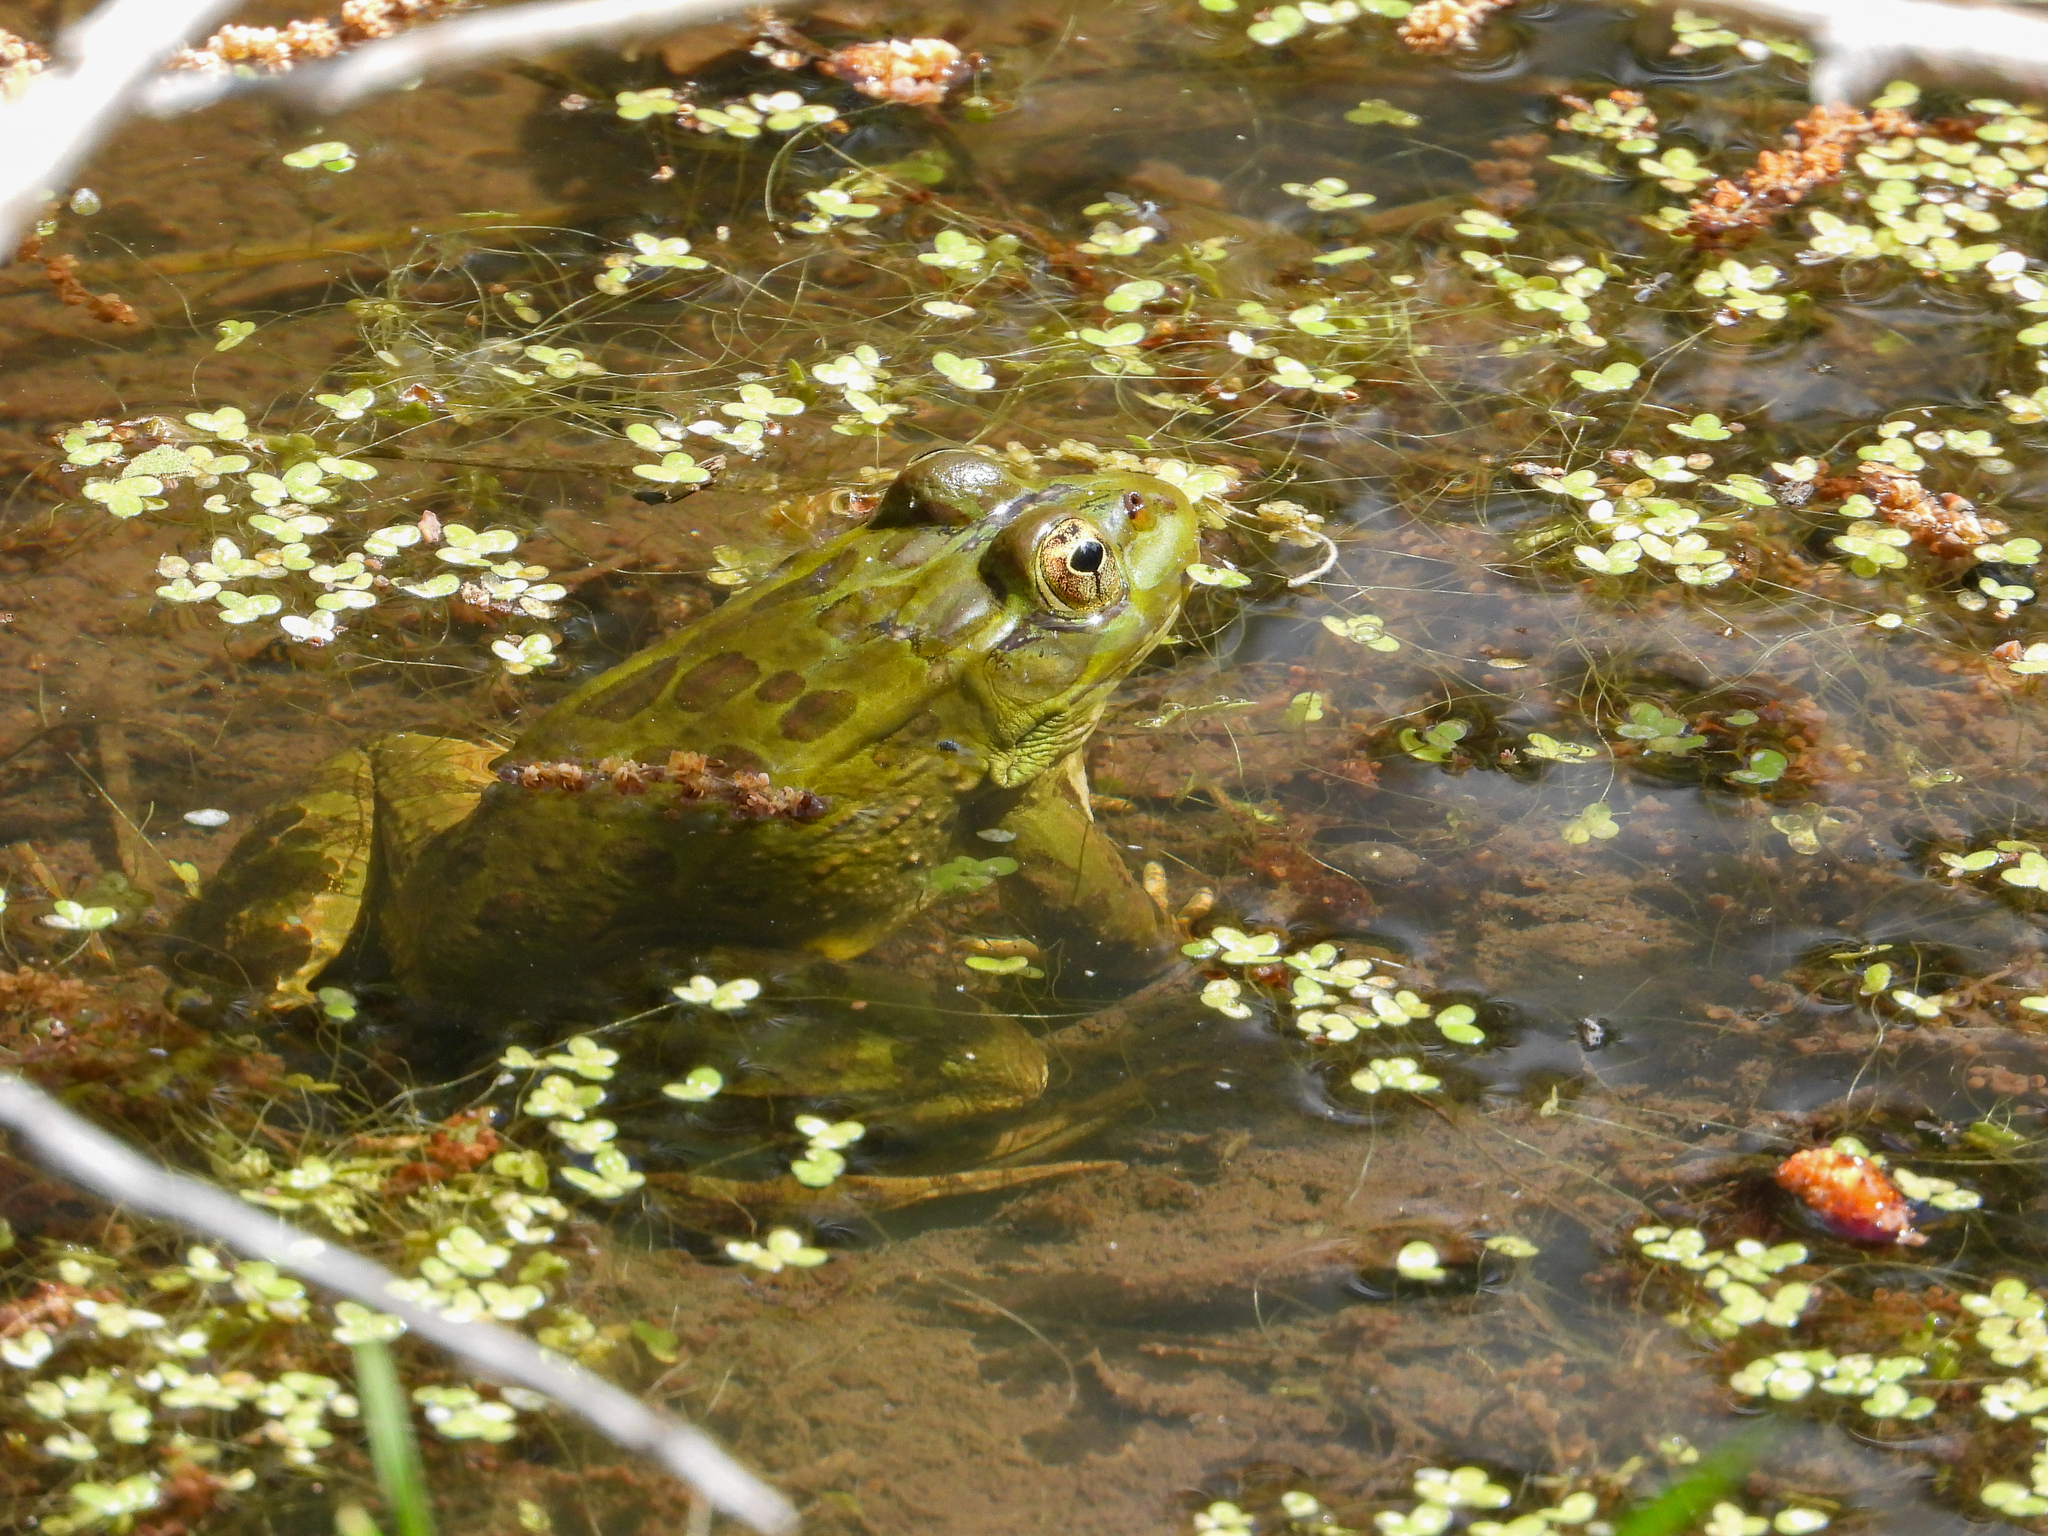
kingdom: Animalia
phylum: Chordata
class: Amphibia
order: Anura
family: Ranidae
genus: Lithobates
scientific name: Lithobates chiricahuensis
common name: Chiricahua leopard frog
